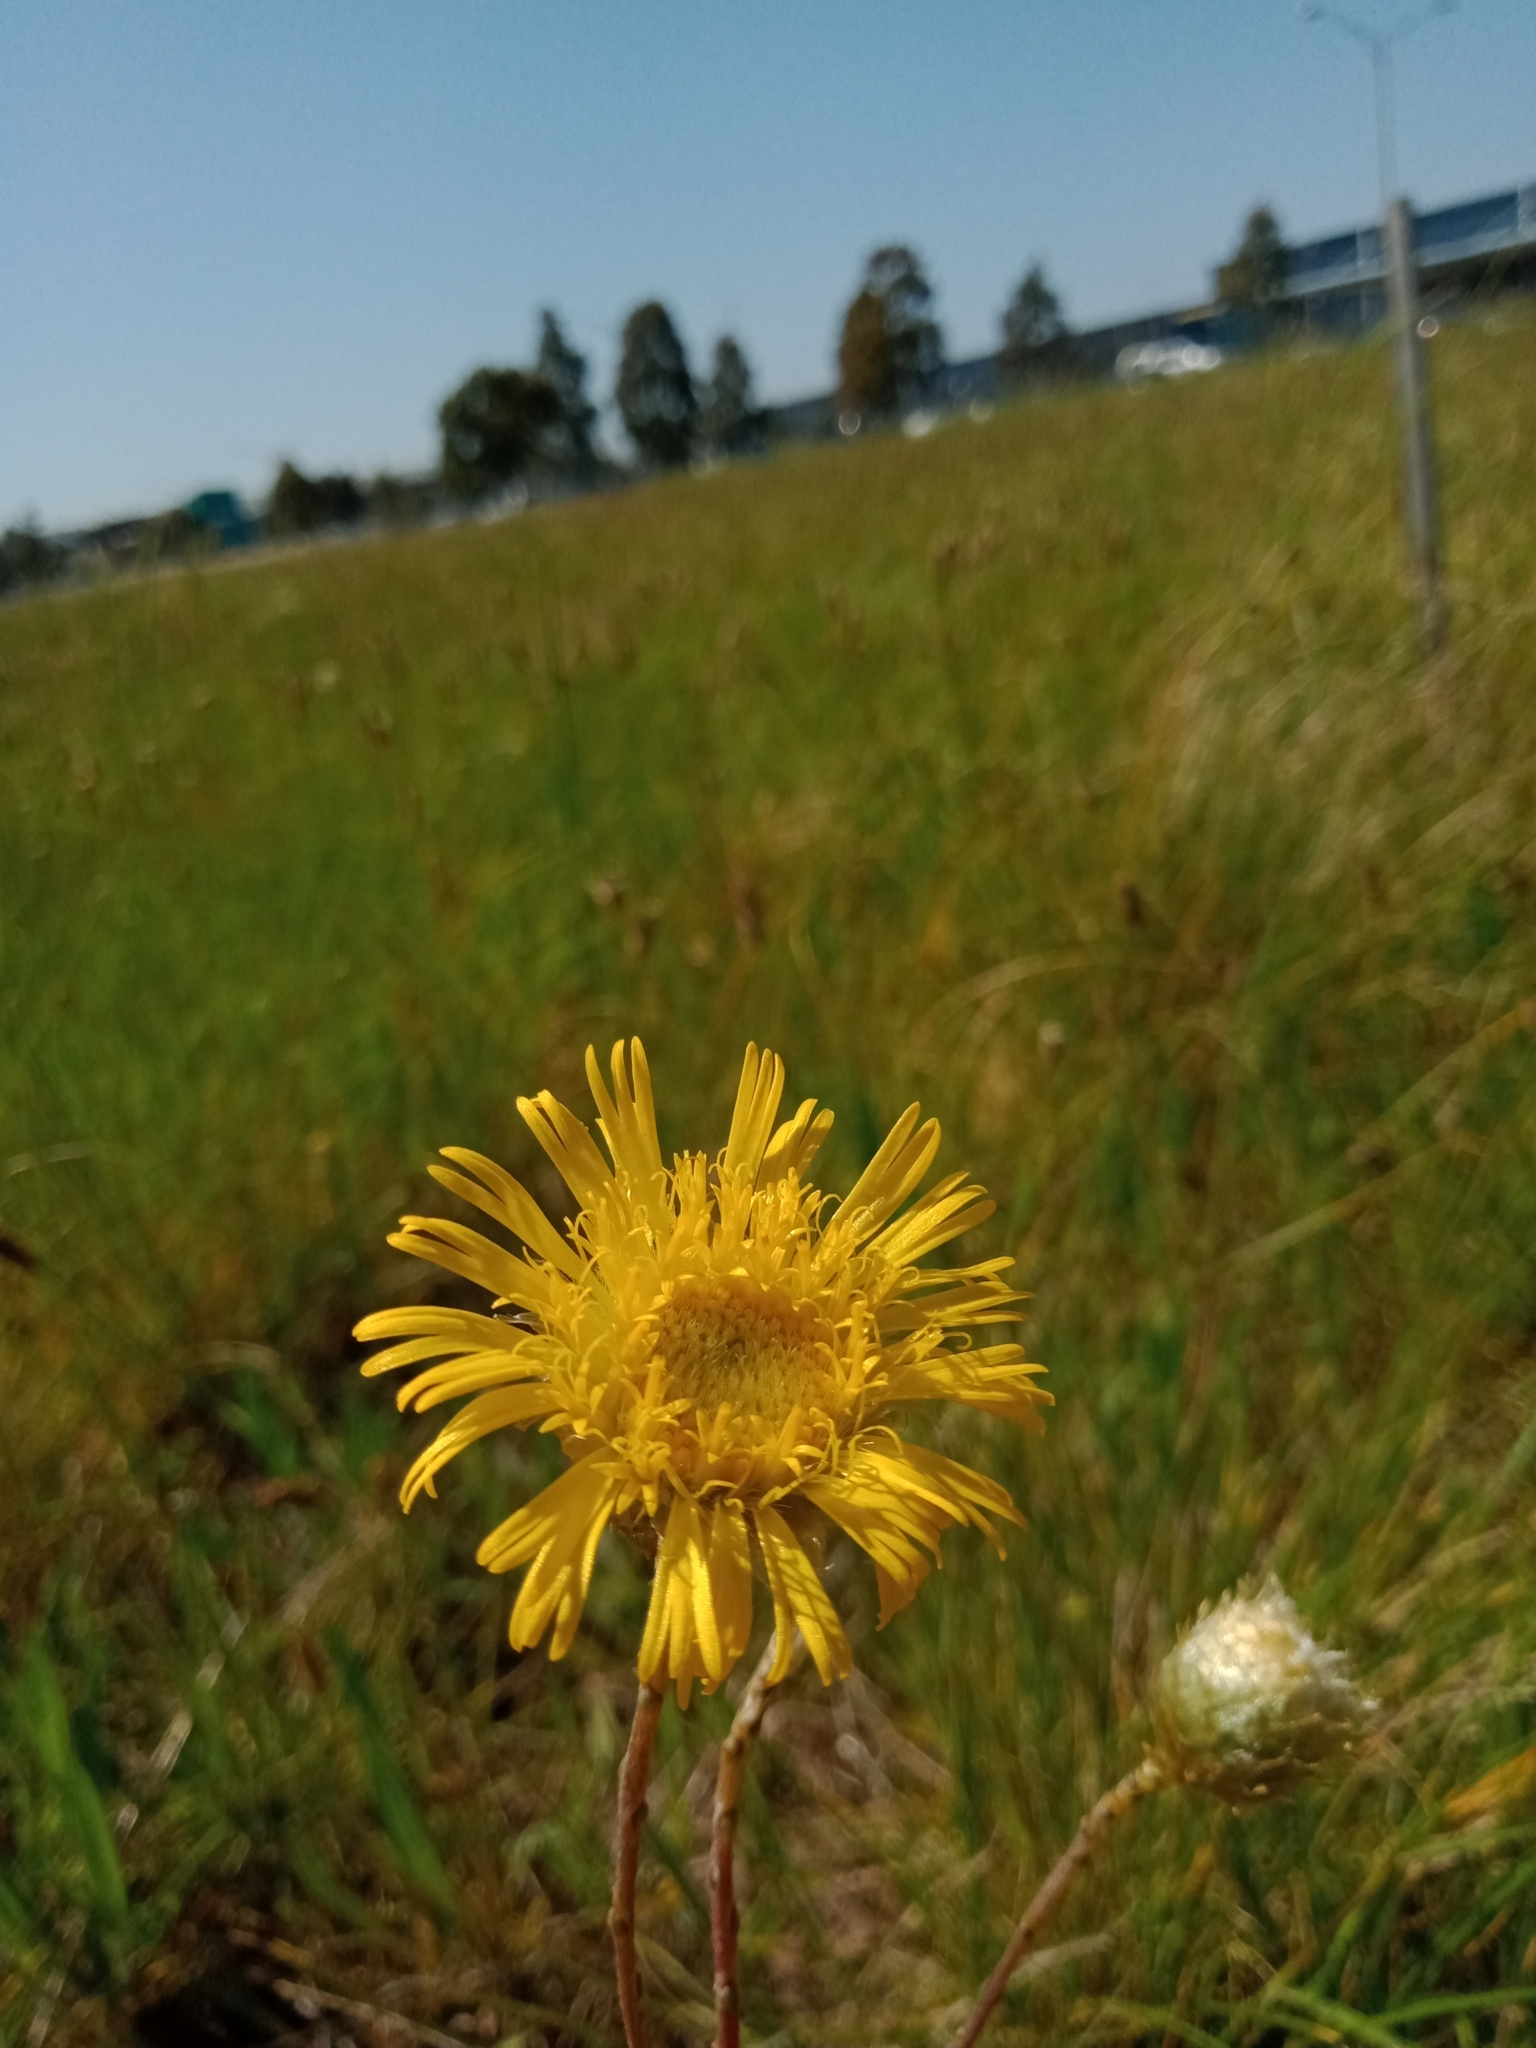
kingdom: Plantae
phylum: Tracheophyta
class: Magnoliopsida
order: Asterales
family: Asteraceae
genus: Podolepis
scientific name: Podolepis linearifolia
